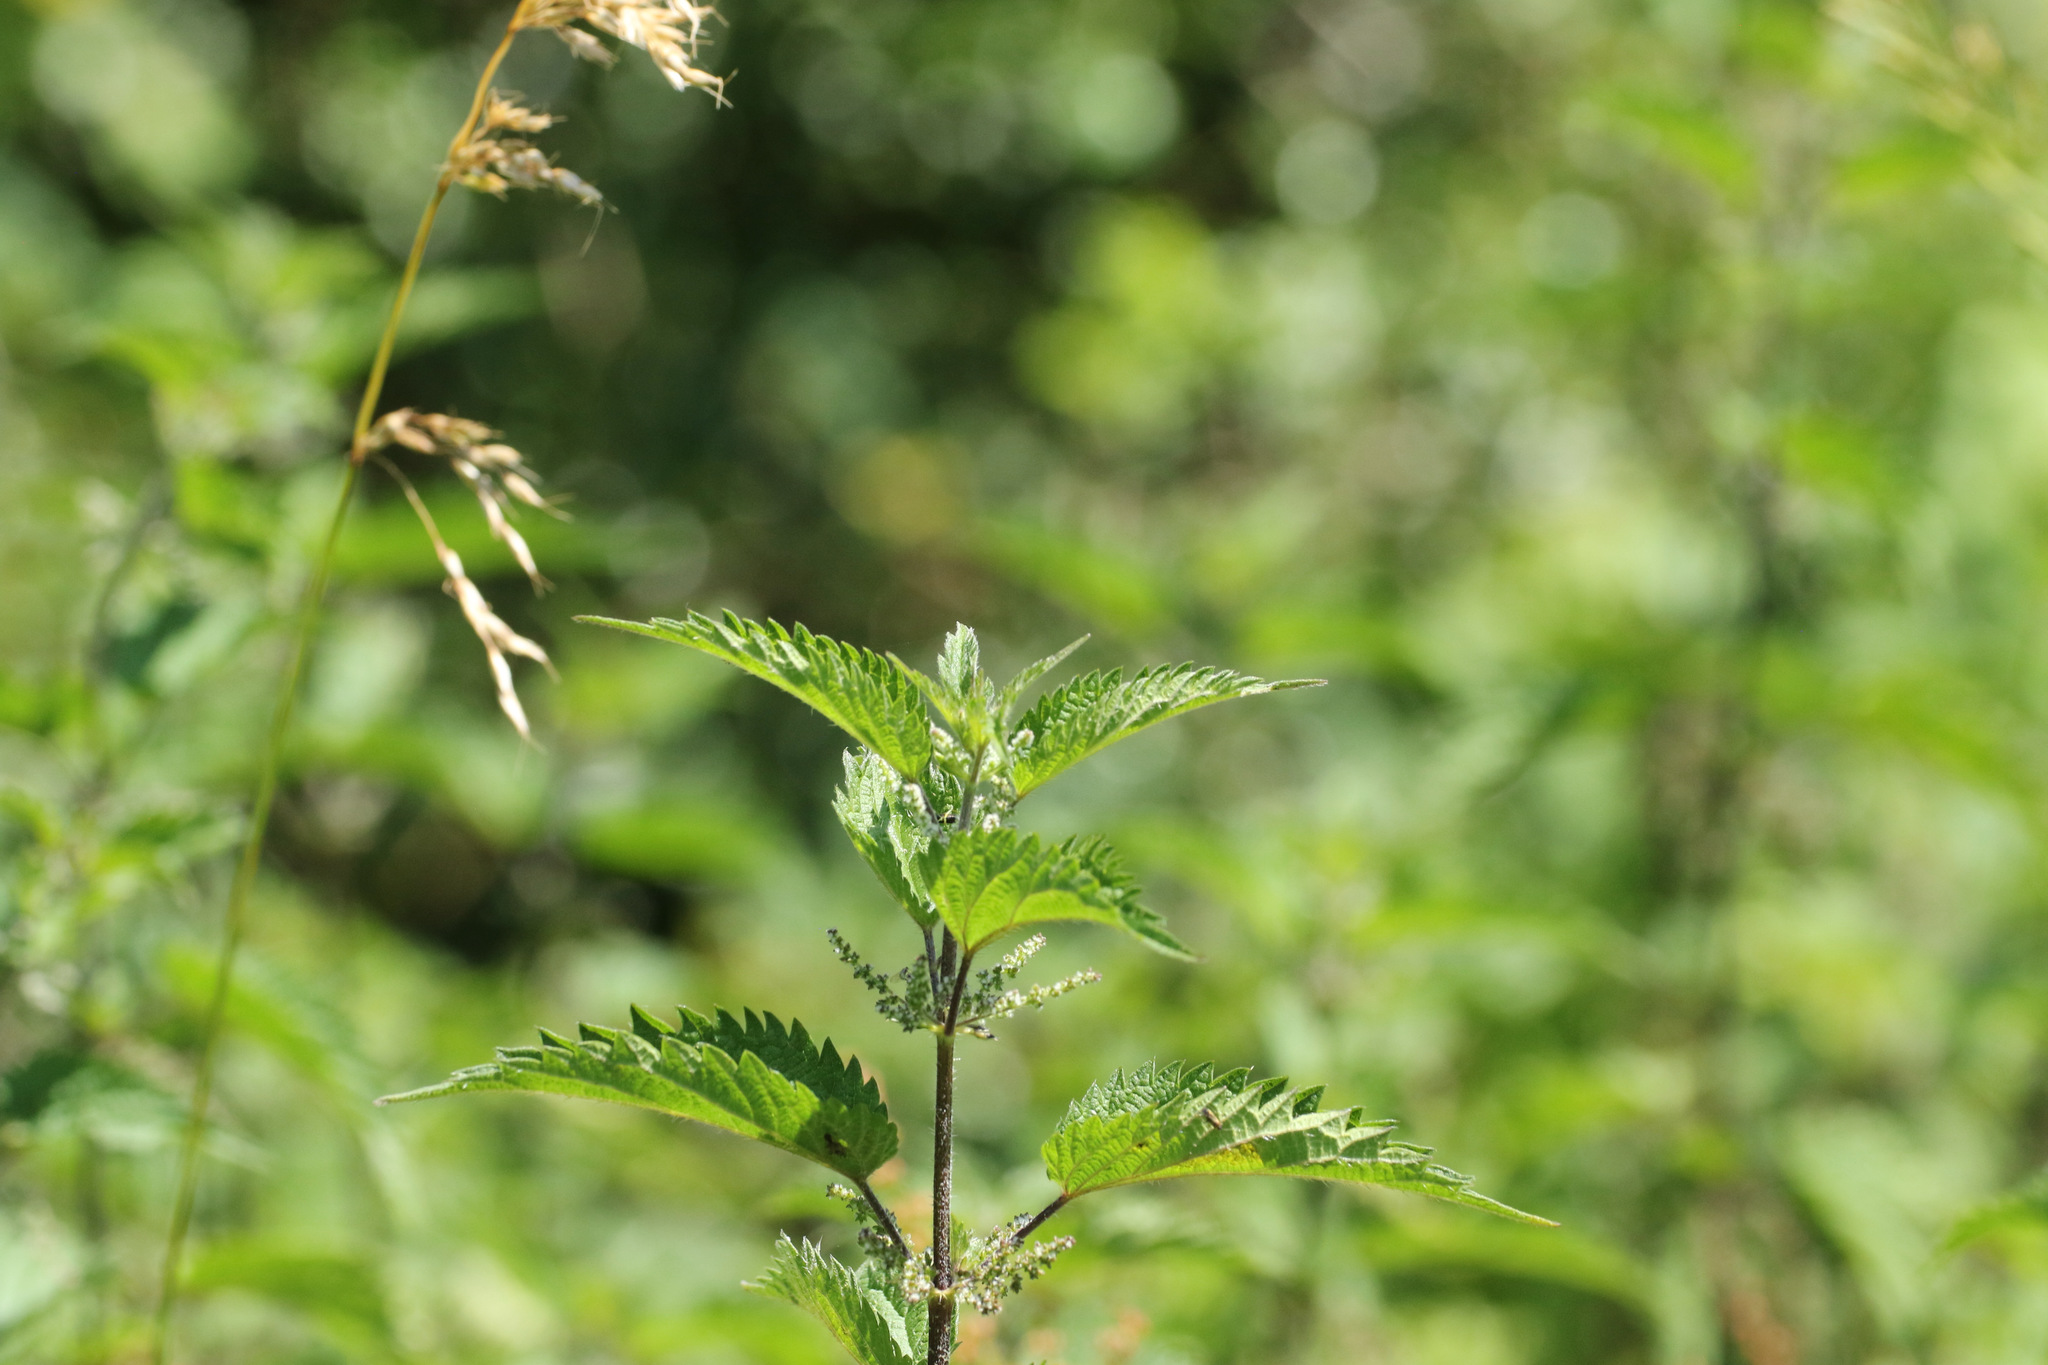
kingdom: Plantae
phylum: Tracheophyta
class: Magnoliopsida
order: Rosales
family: Urticaceae
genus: Urtica
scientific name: Urtica dioica
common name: Common nettle
